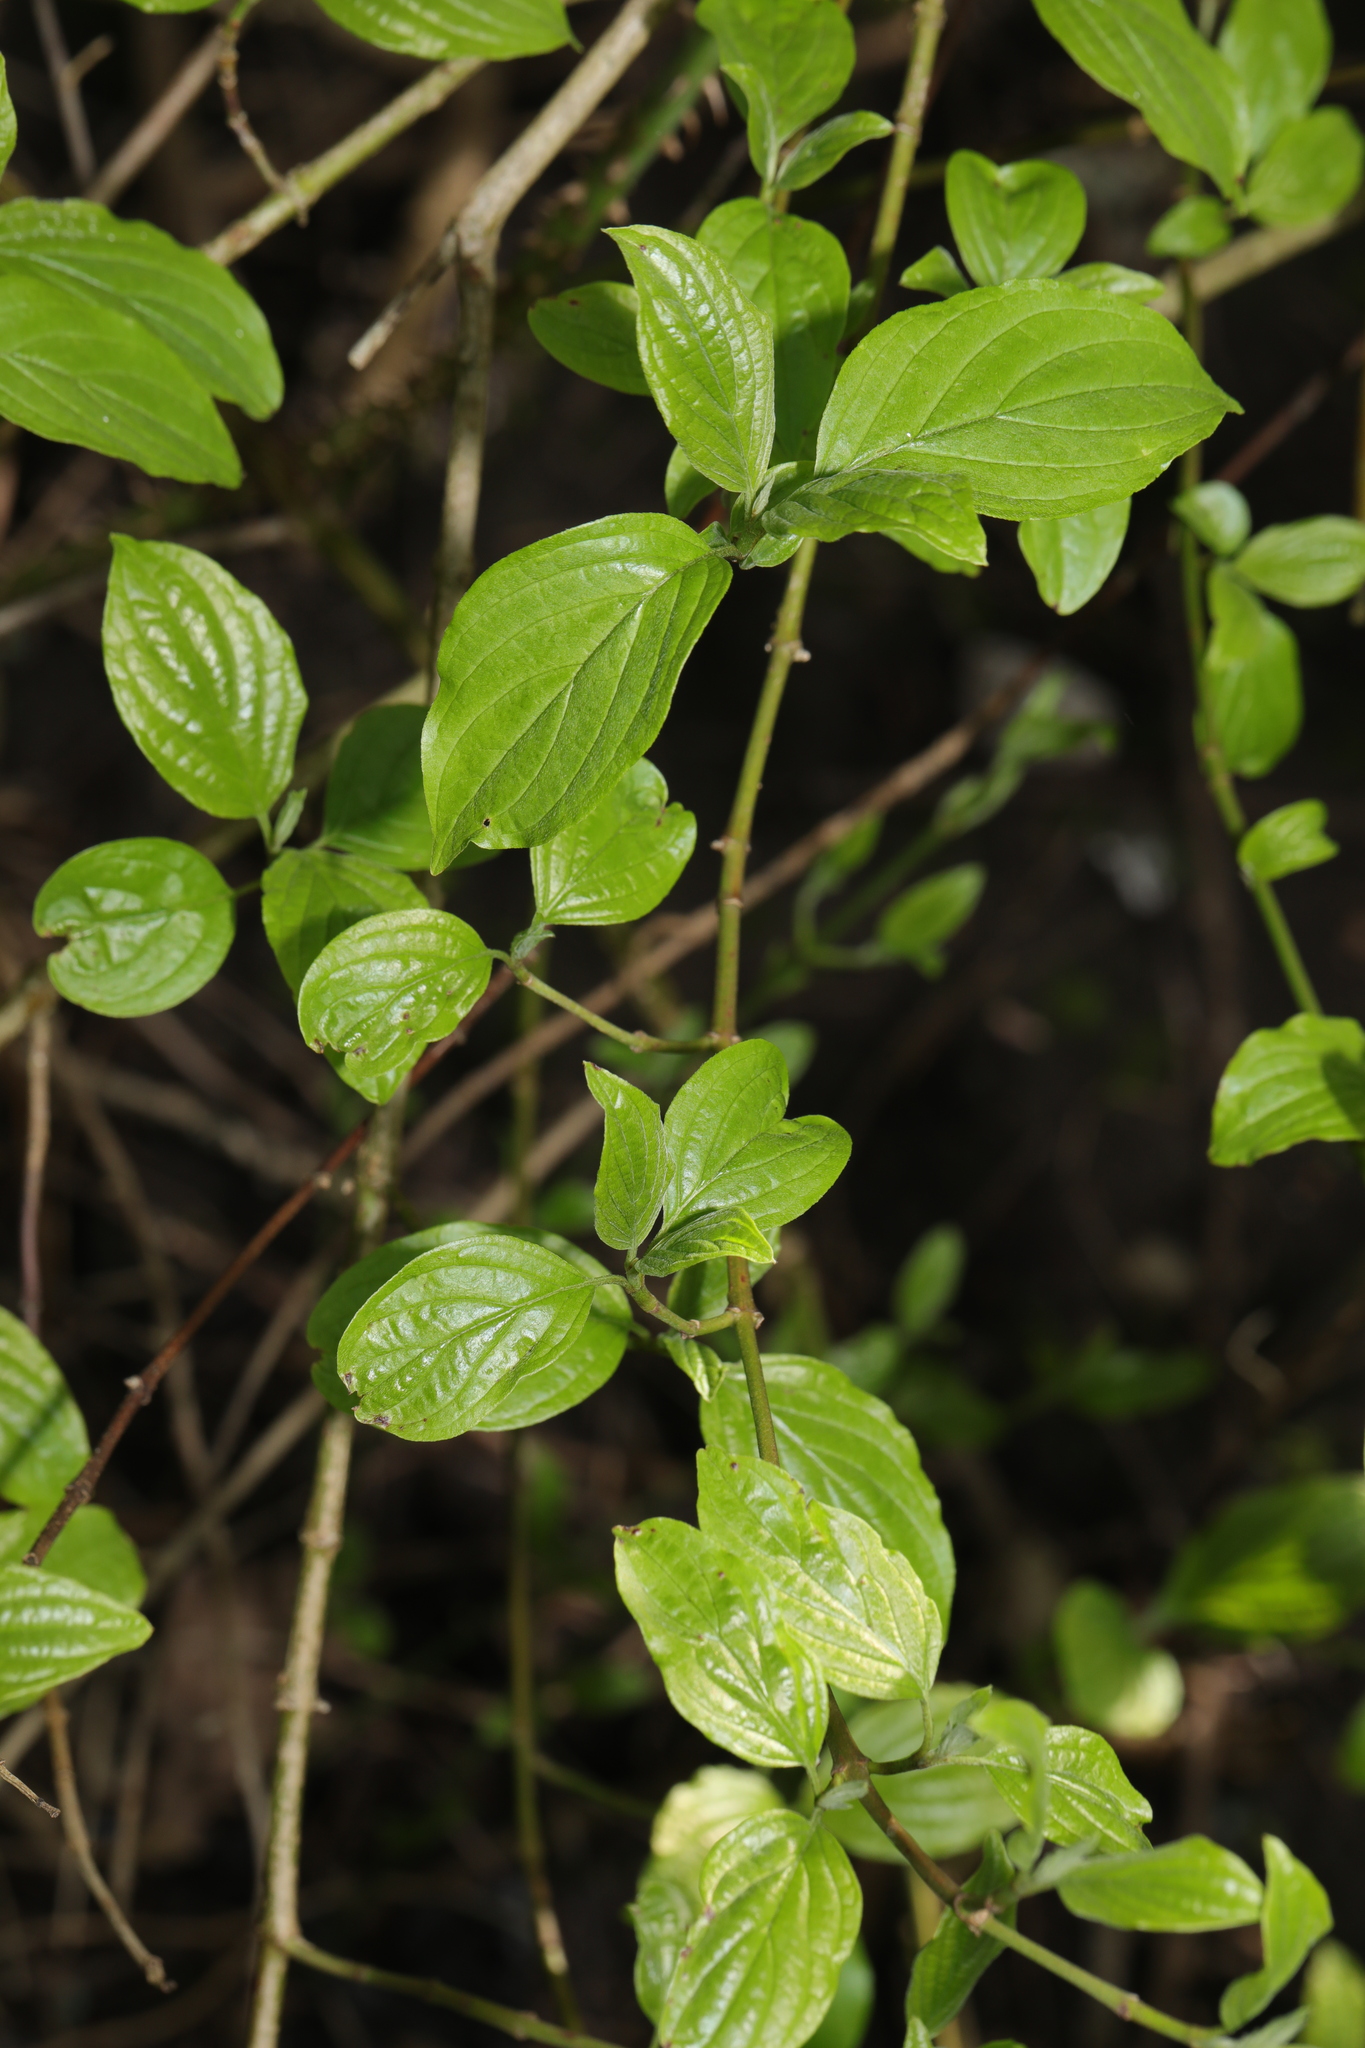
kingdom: Plantae
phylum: Tracheophyta
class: Magnoliopsida
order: Cornales
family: Cornaceae
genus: Cornus
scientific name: Cornus sanguinea
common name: Dogwood
